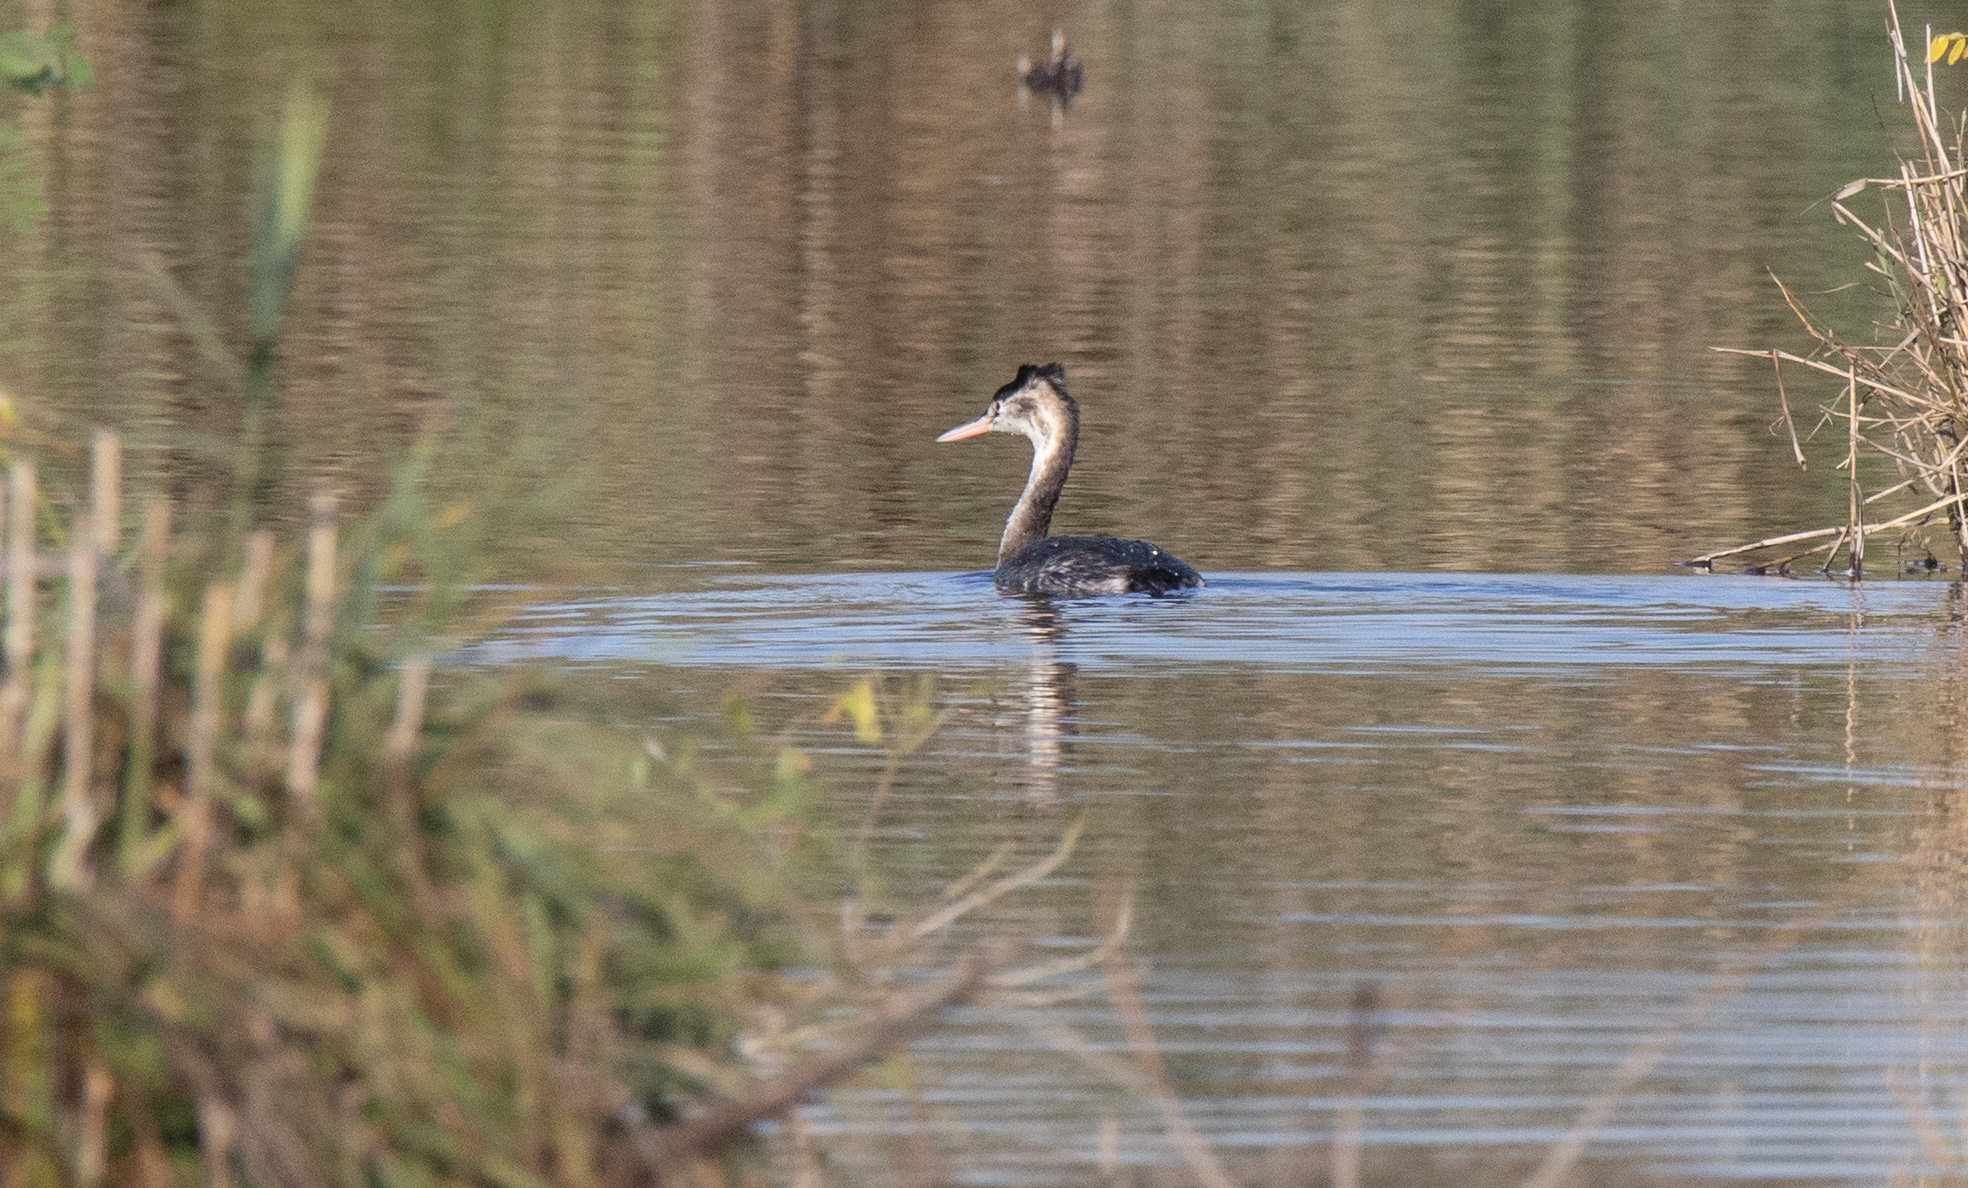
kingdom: Animalia
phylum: Chordata
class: Aves
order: Podicipediformes
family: Podicipedidae
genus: Podiceps
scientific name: Podiceps cristatus
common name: Great crested grebe
